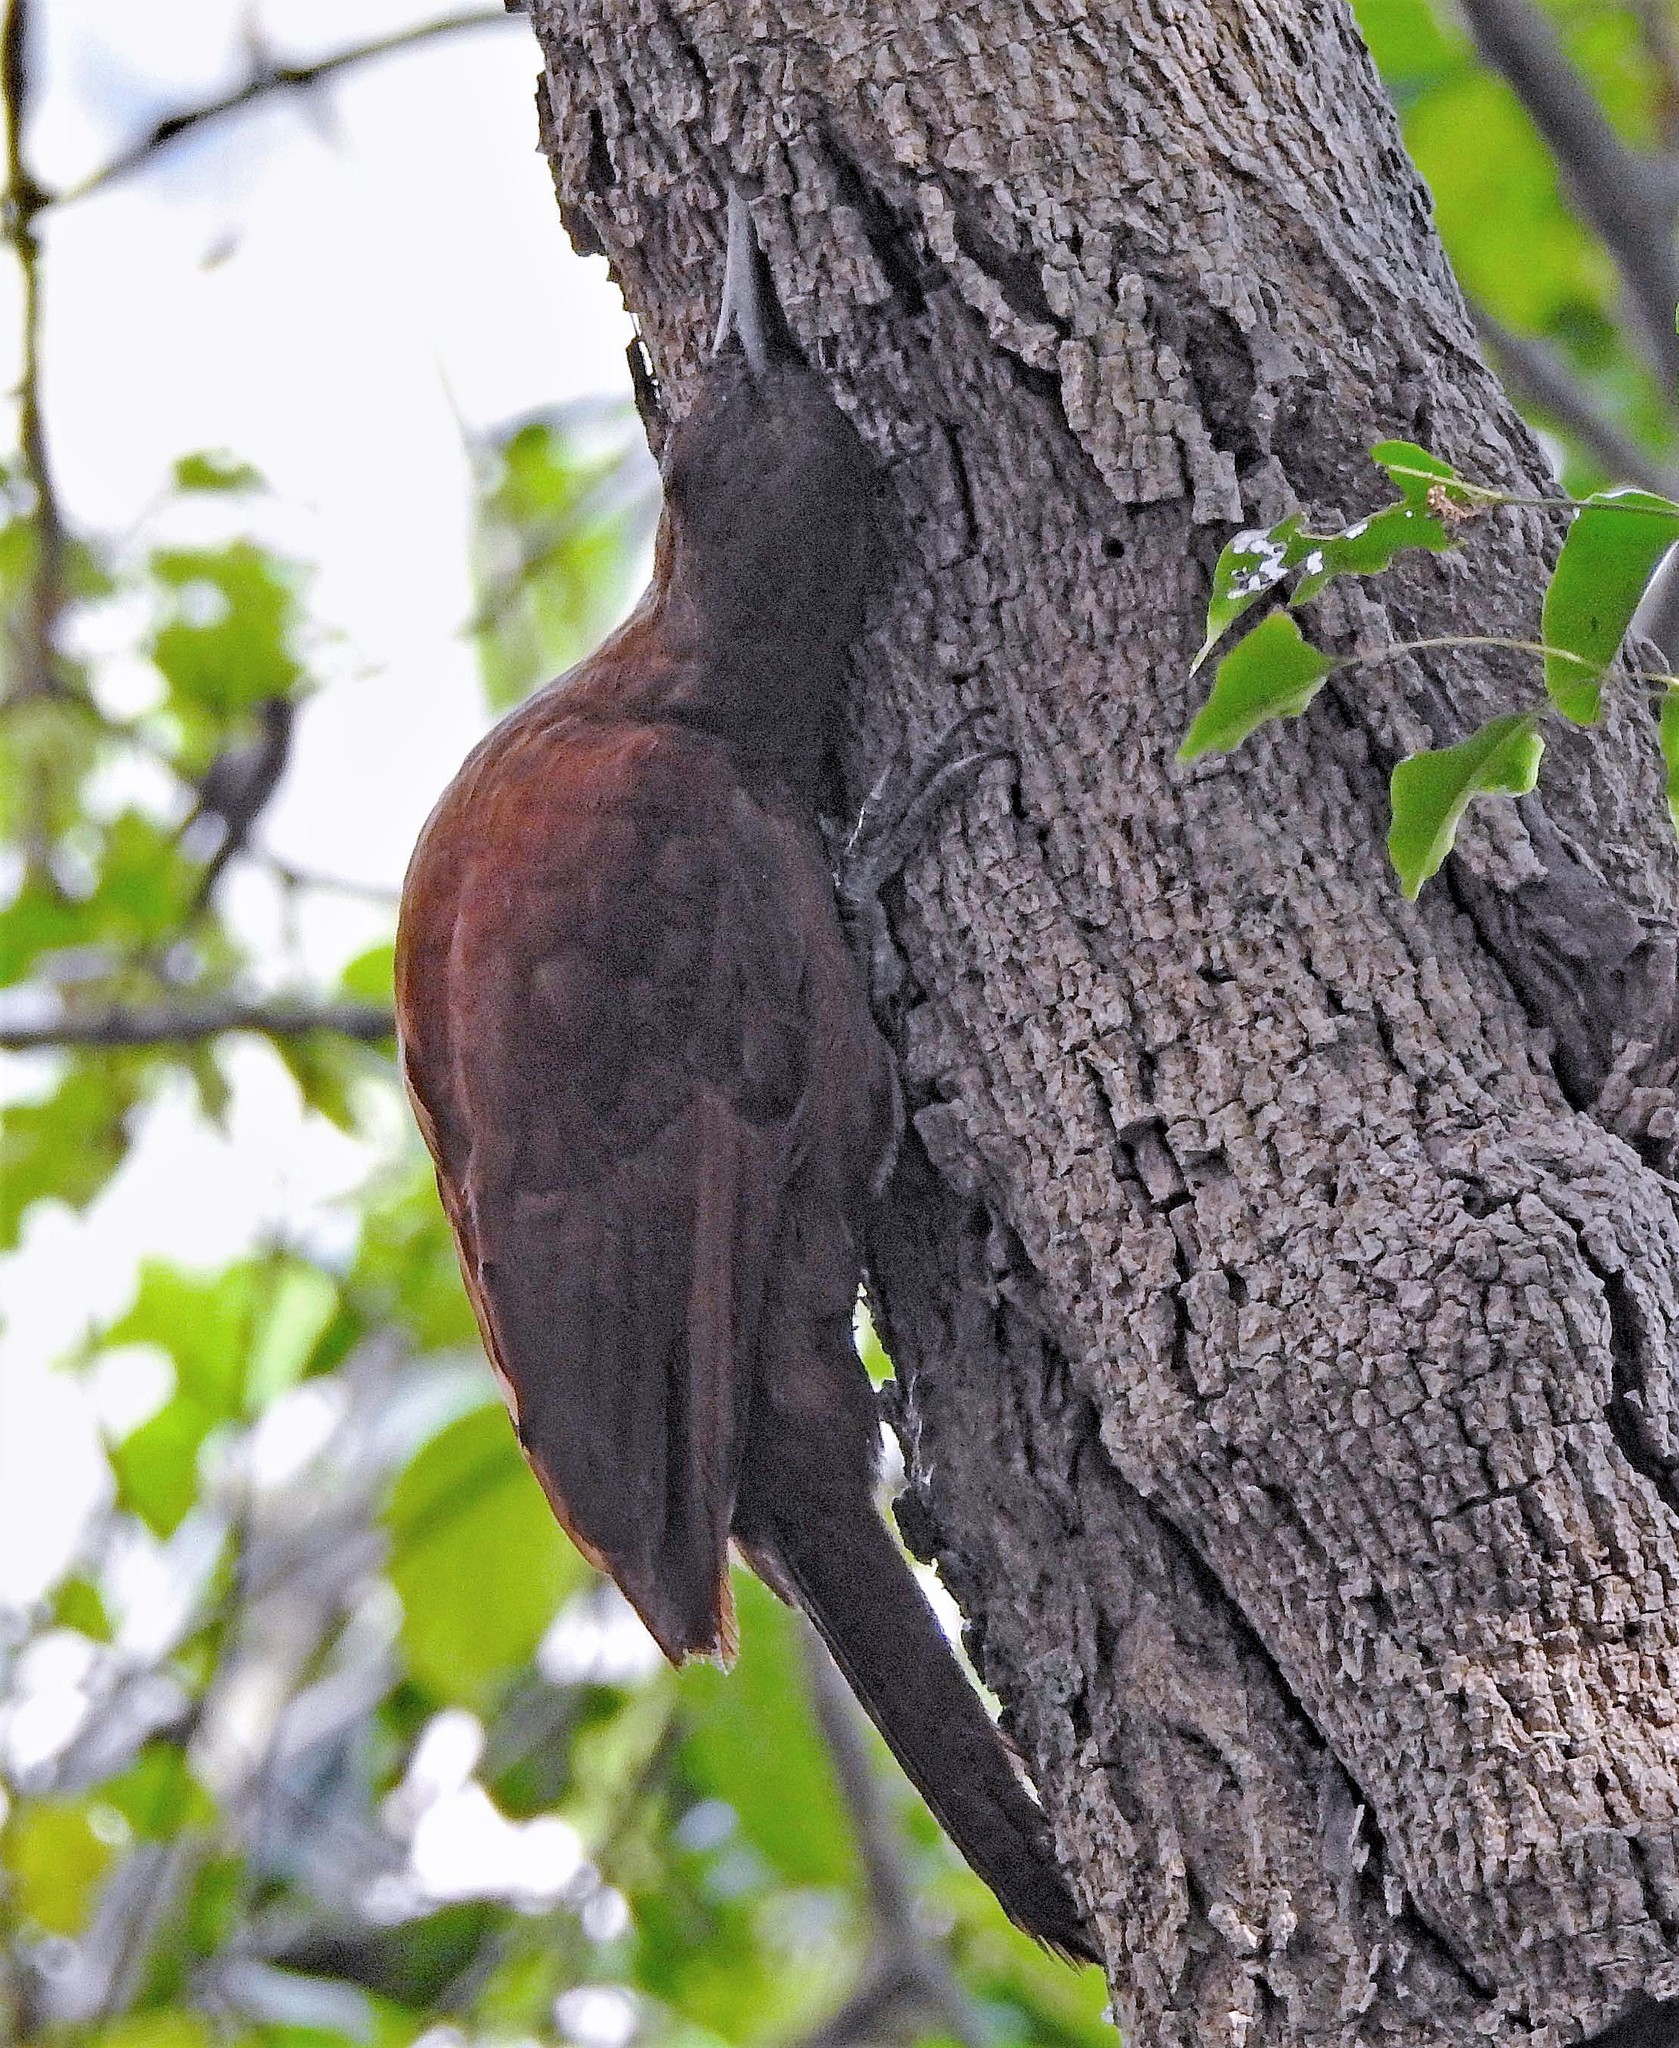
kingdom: Animalia
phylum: Chordata
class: Aves
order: Passeriformes
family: Furnariidae
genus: Xiphocolaptes
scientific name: Xiphocolaptes major
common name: Great rufous woodcreeper
